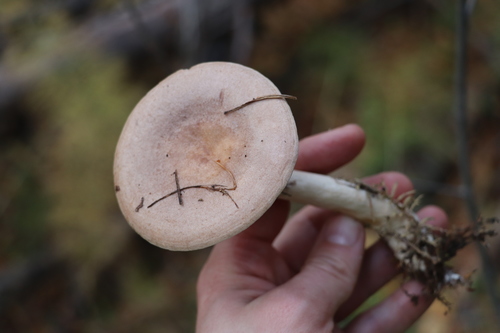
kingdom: Fungi
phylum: Basidiomycota
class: Agaricomycetes
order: Agaricales
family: Cortinariaceae
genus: Cortinarius
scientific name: Cortinarius trivialis
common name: Girdled webcap
